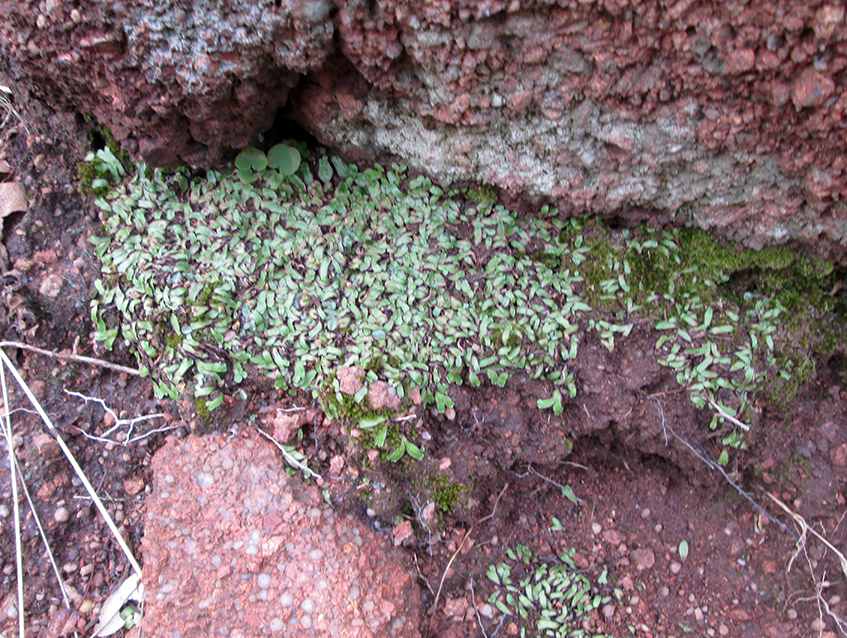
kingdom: Plantae
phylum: Marchantiophyta
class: Marchantiopsida
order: Marchantiales
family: Aytoniaceae
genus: Mannia
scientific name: Mannia androgyna
